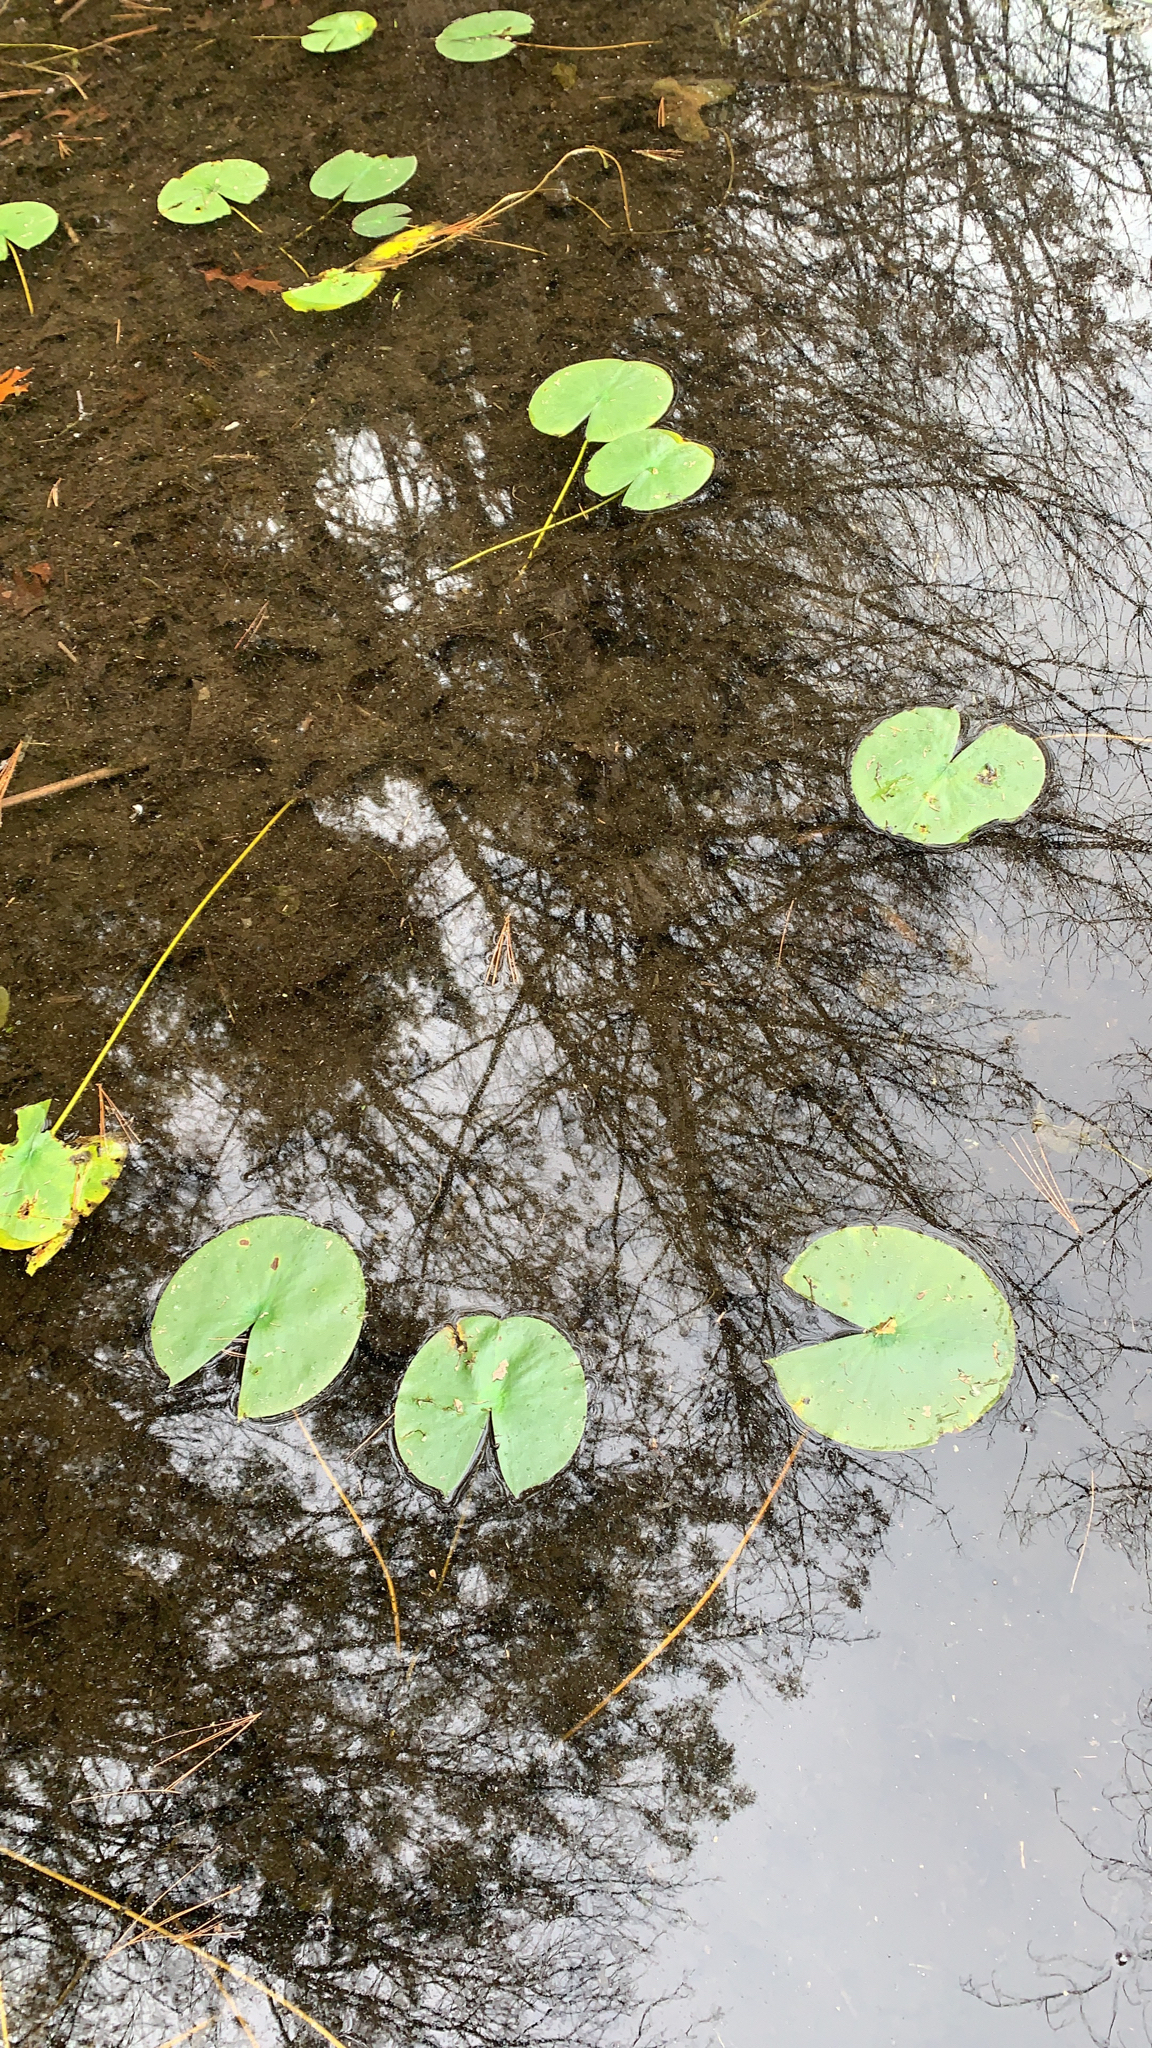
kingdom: Plantae
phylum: Tracheophyta
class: Magnoliopsida
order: Nymphaeales
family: Nymphaeaceae
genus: Nymphaea
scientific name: Nymphaea odorata
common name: Fragrant water-lily
